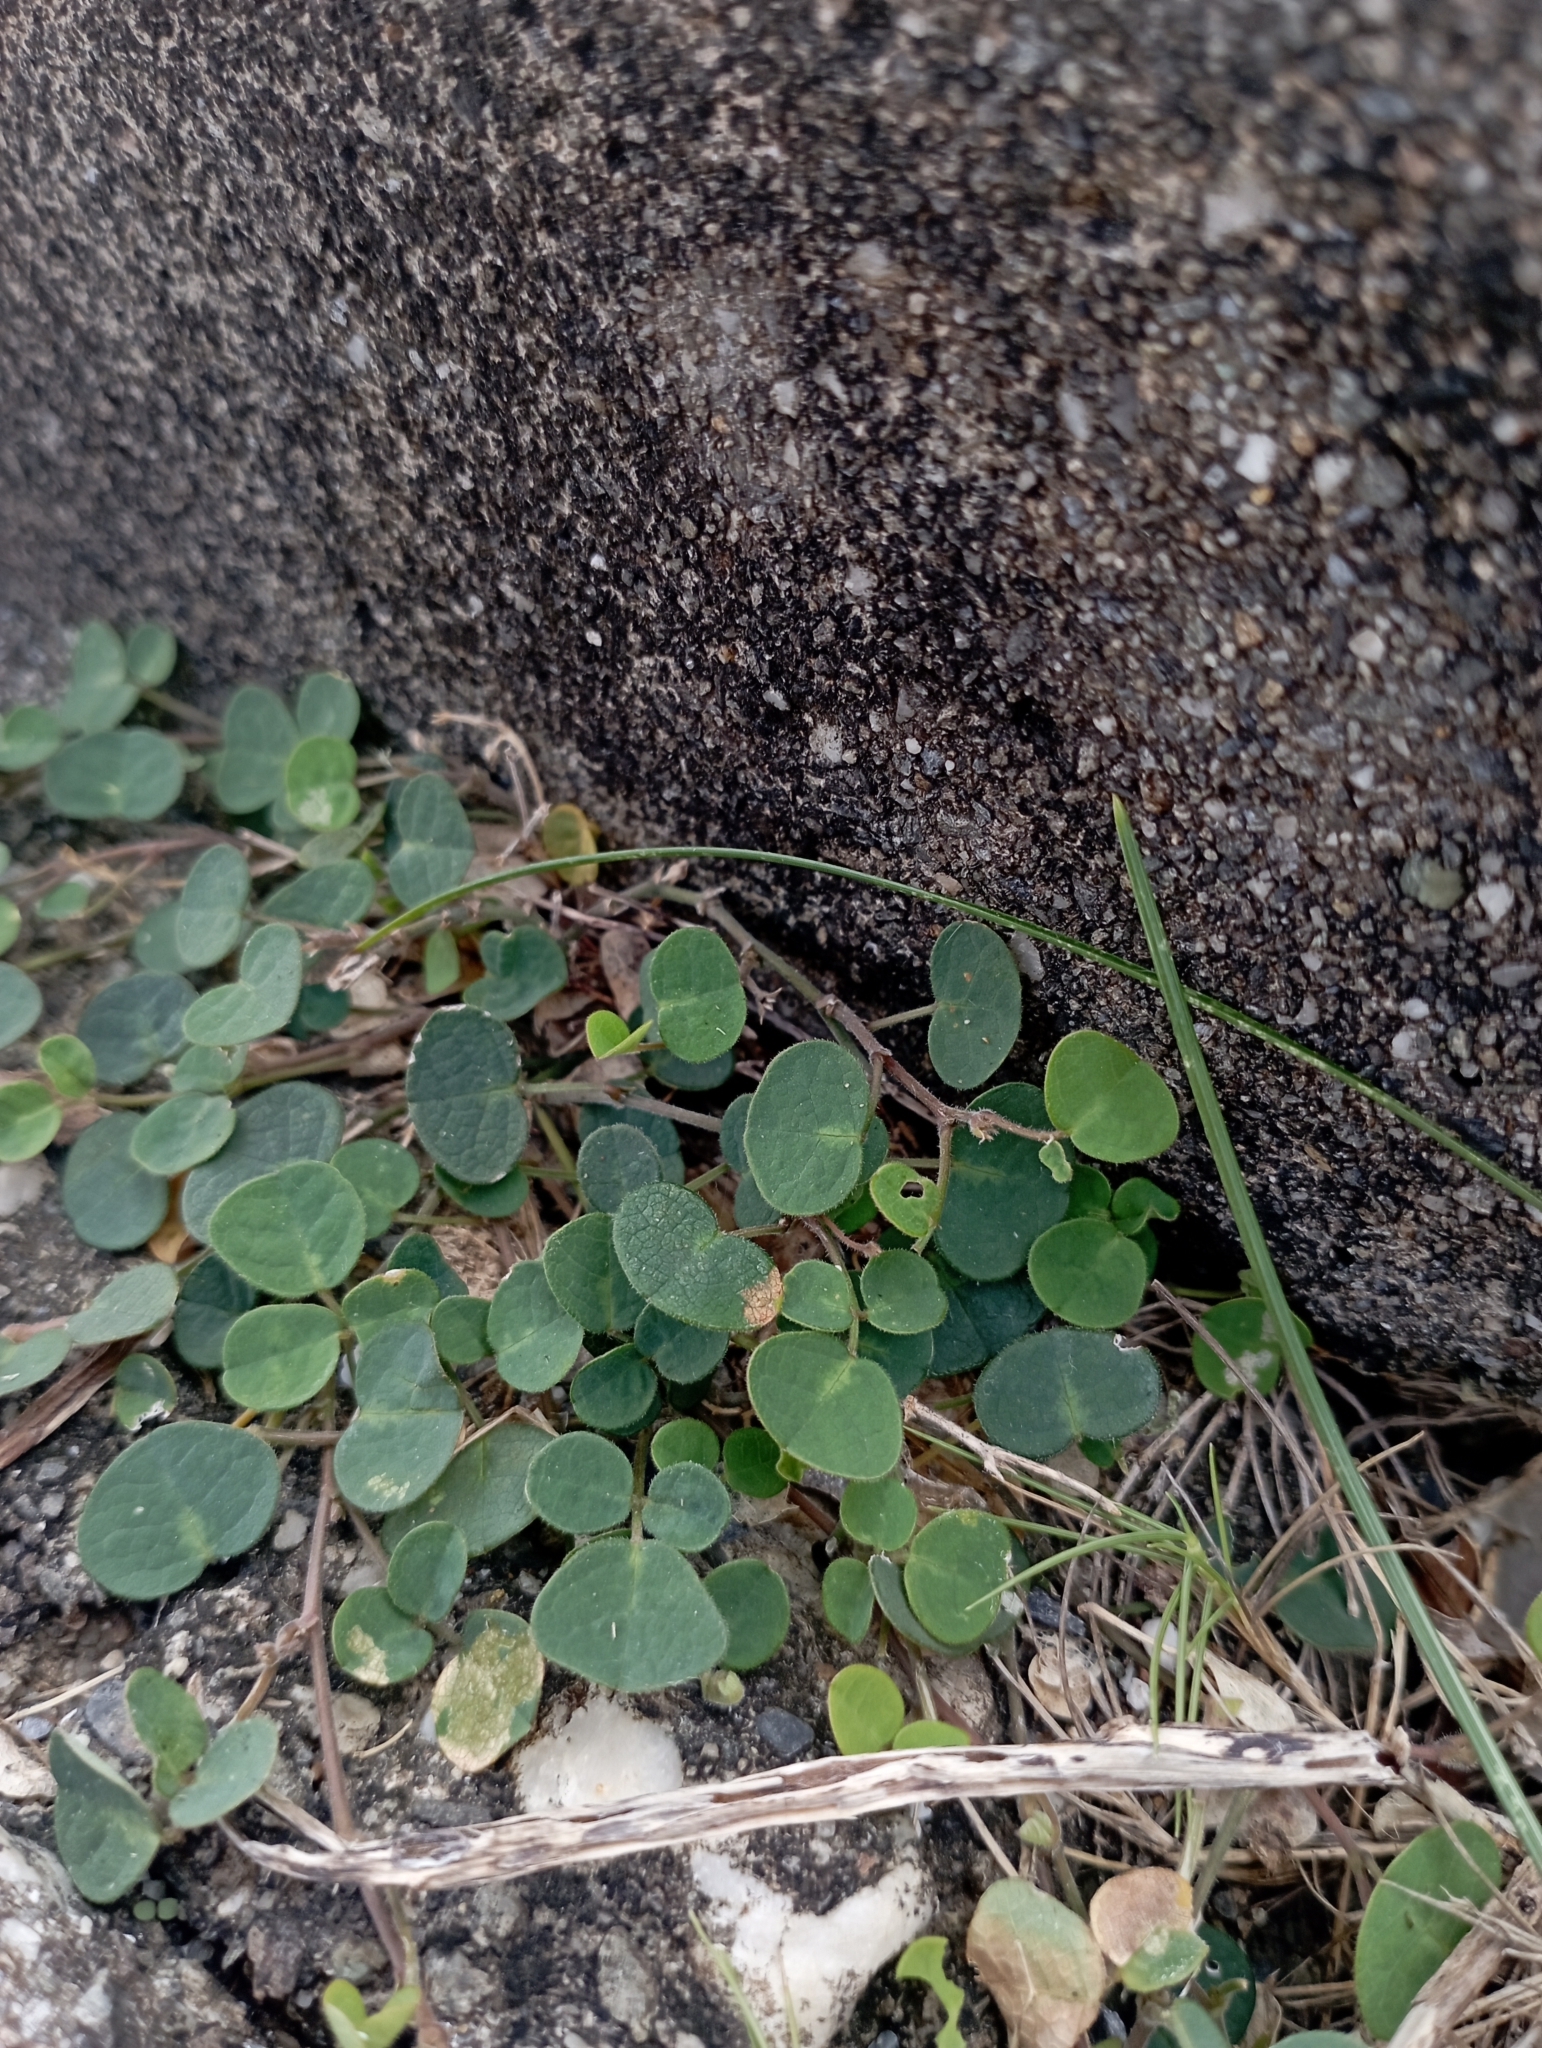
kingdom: Plantae
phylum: Tracheophyta
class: Magnoliopsida
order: Fabales
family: Fabaceae
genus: Christia
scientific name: Christia obcordata
